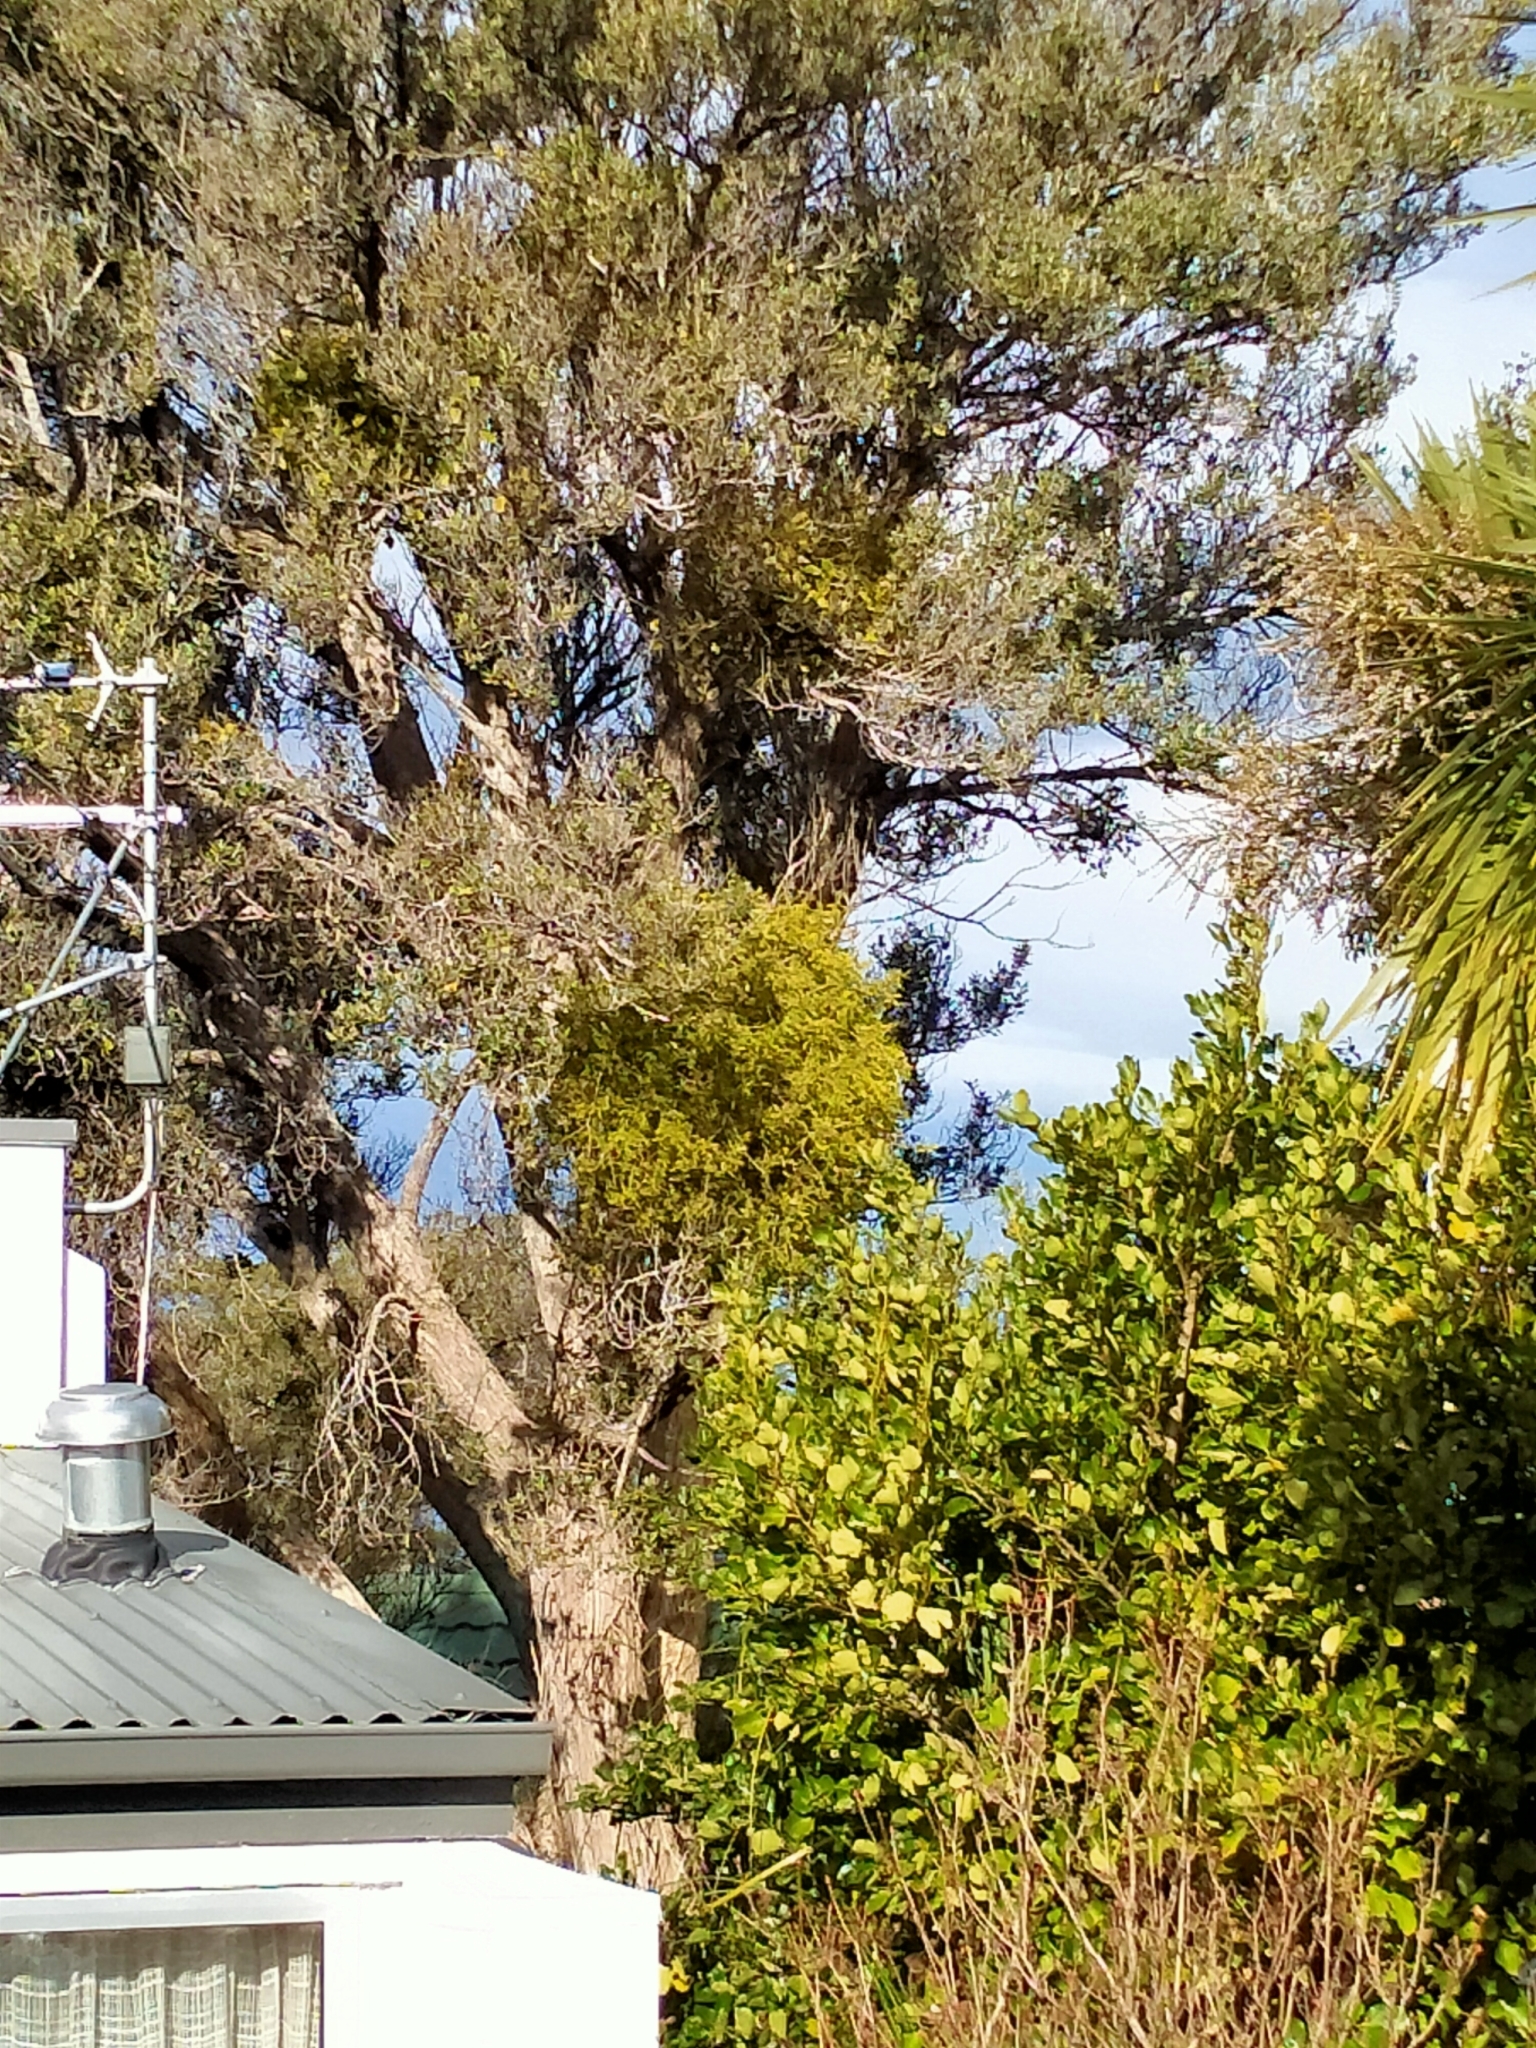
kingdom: Plantae
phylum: Tracheophyta
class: Magnoliopsida
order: Santalales
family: Loranthaceae
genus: Tupeia
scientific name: Tupeia antarctica
